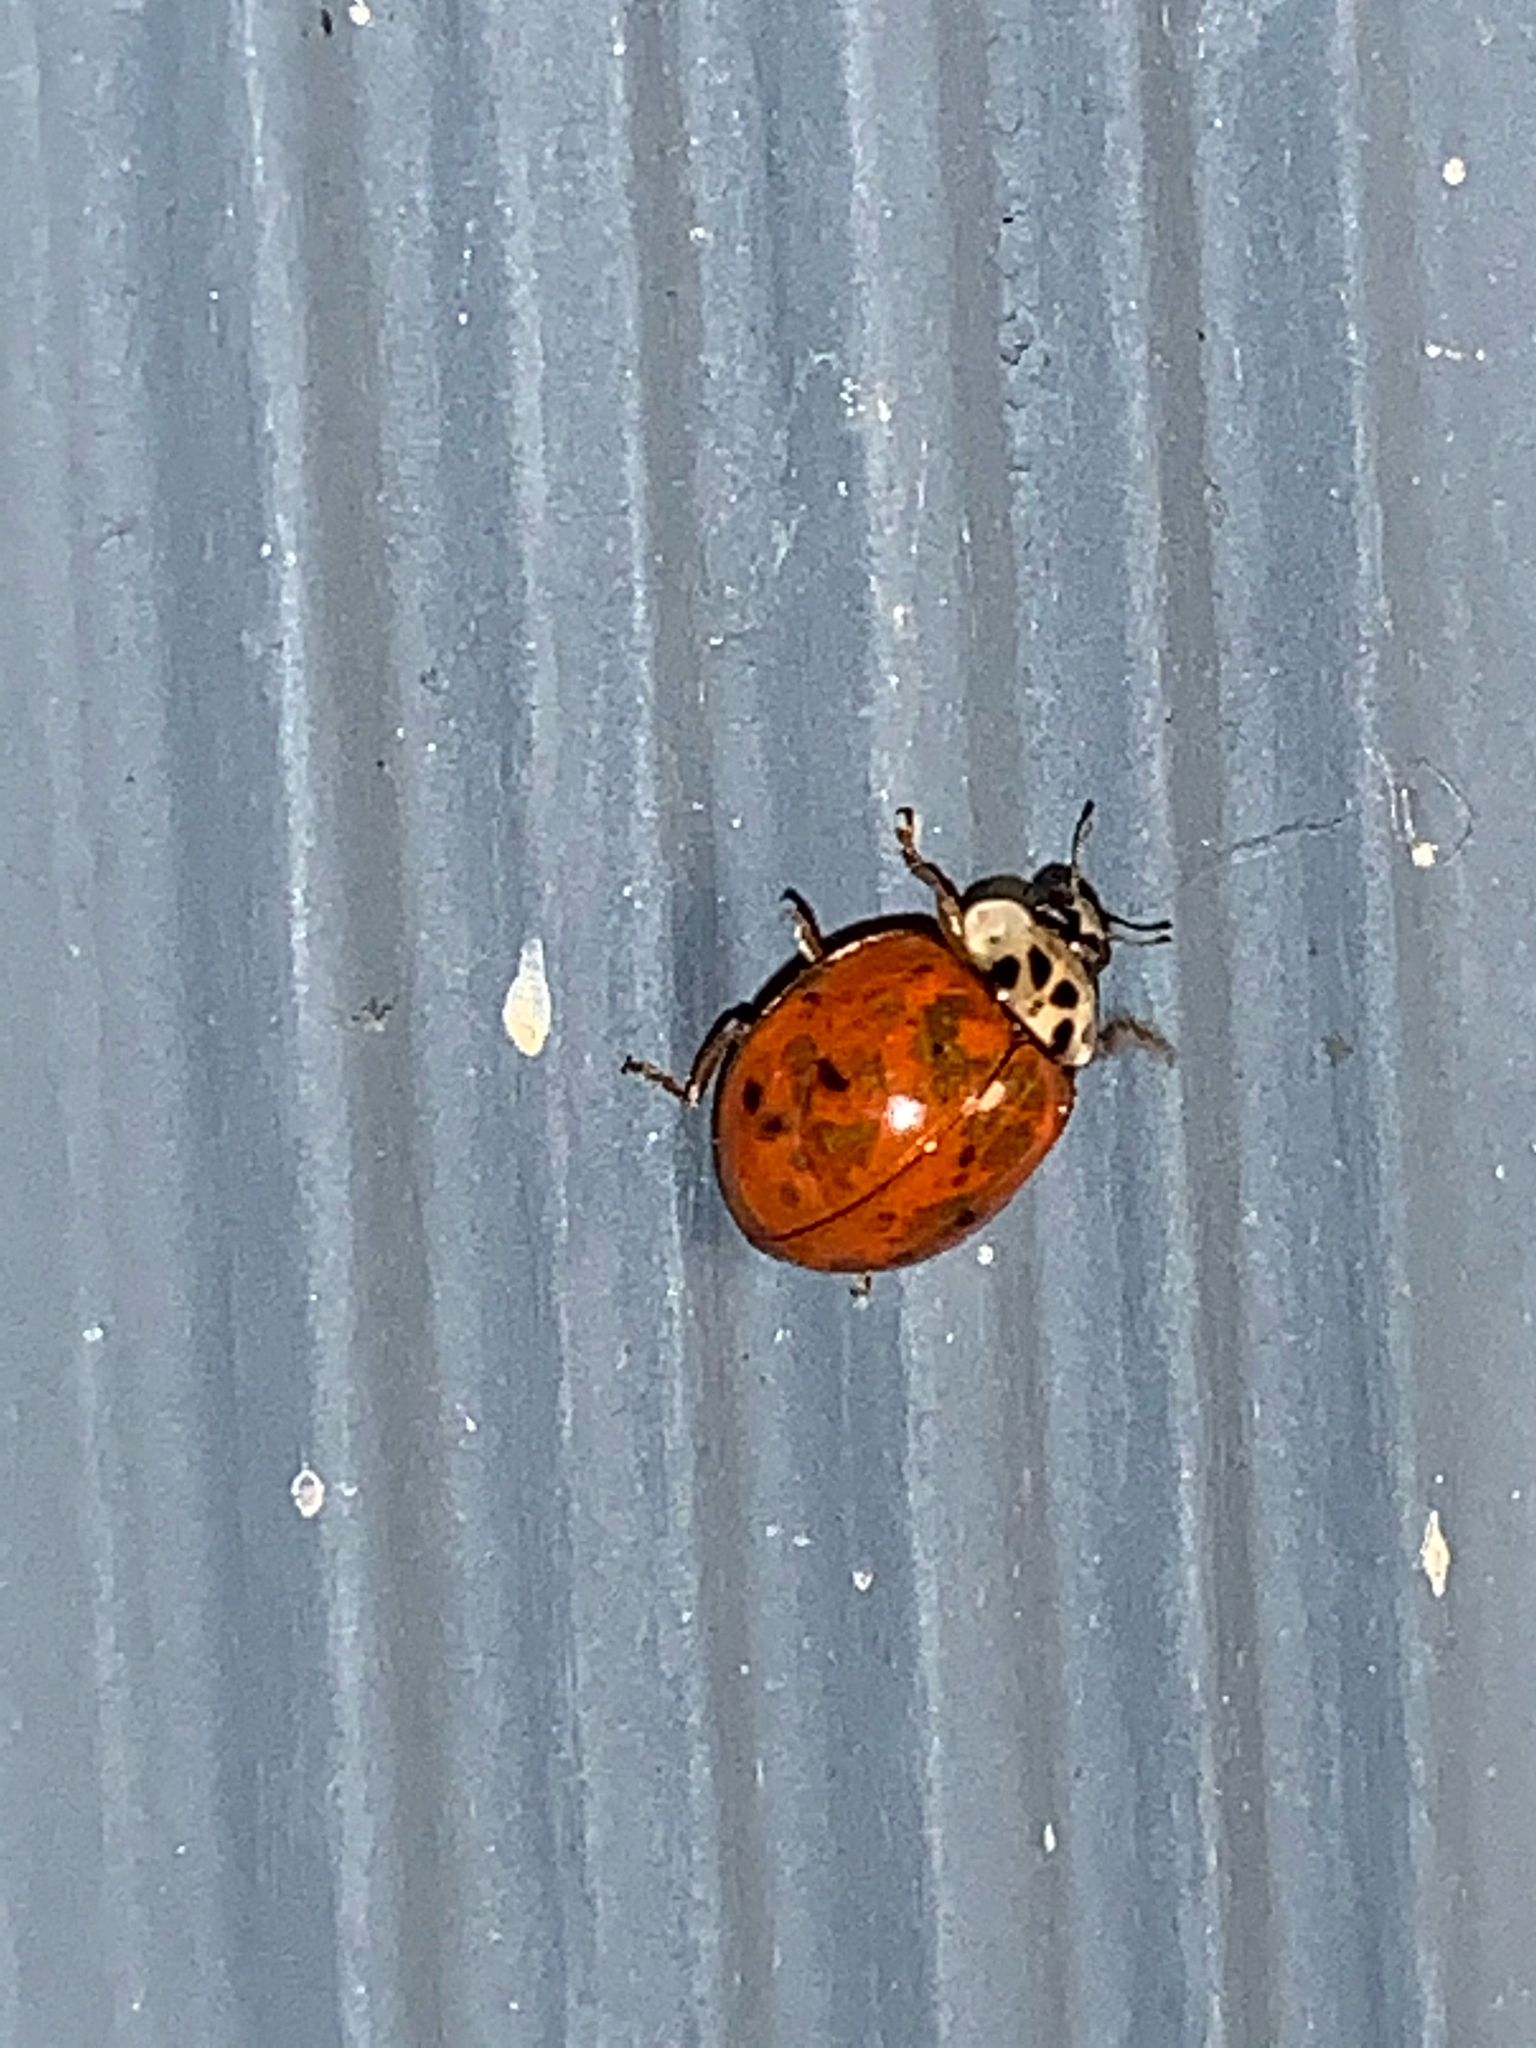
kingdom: Animalia
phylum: Arthropoda
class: Insecta
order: Coleoptera
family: Coccinellidae
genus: Harmonia
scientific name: Harmonia axyridis
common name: Harlequin ladybird
